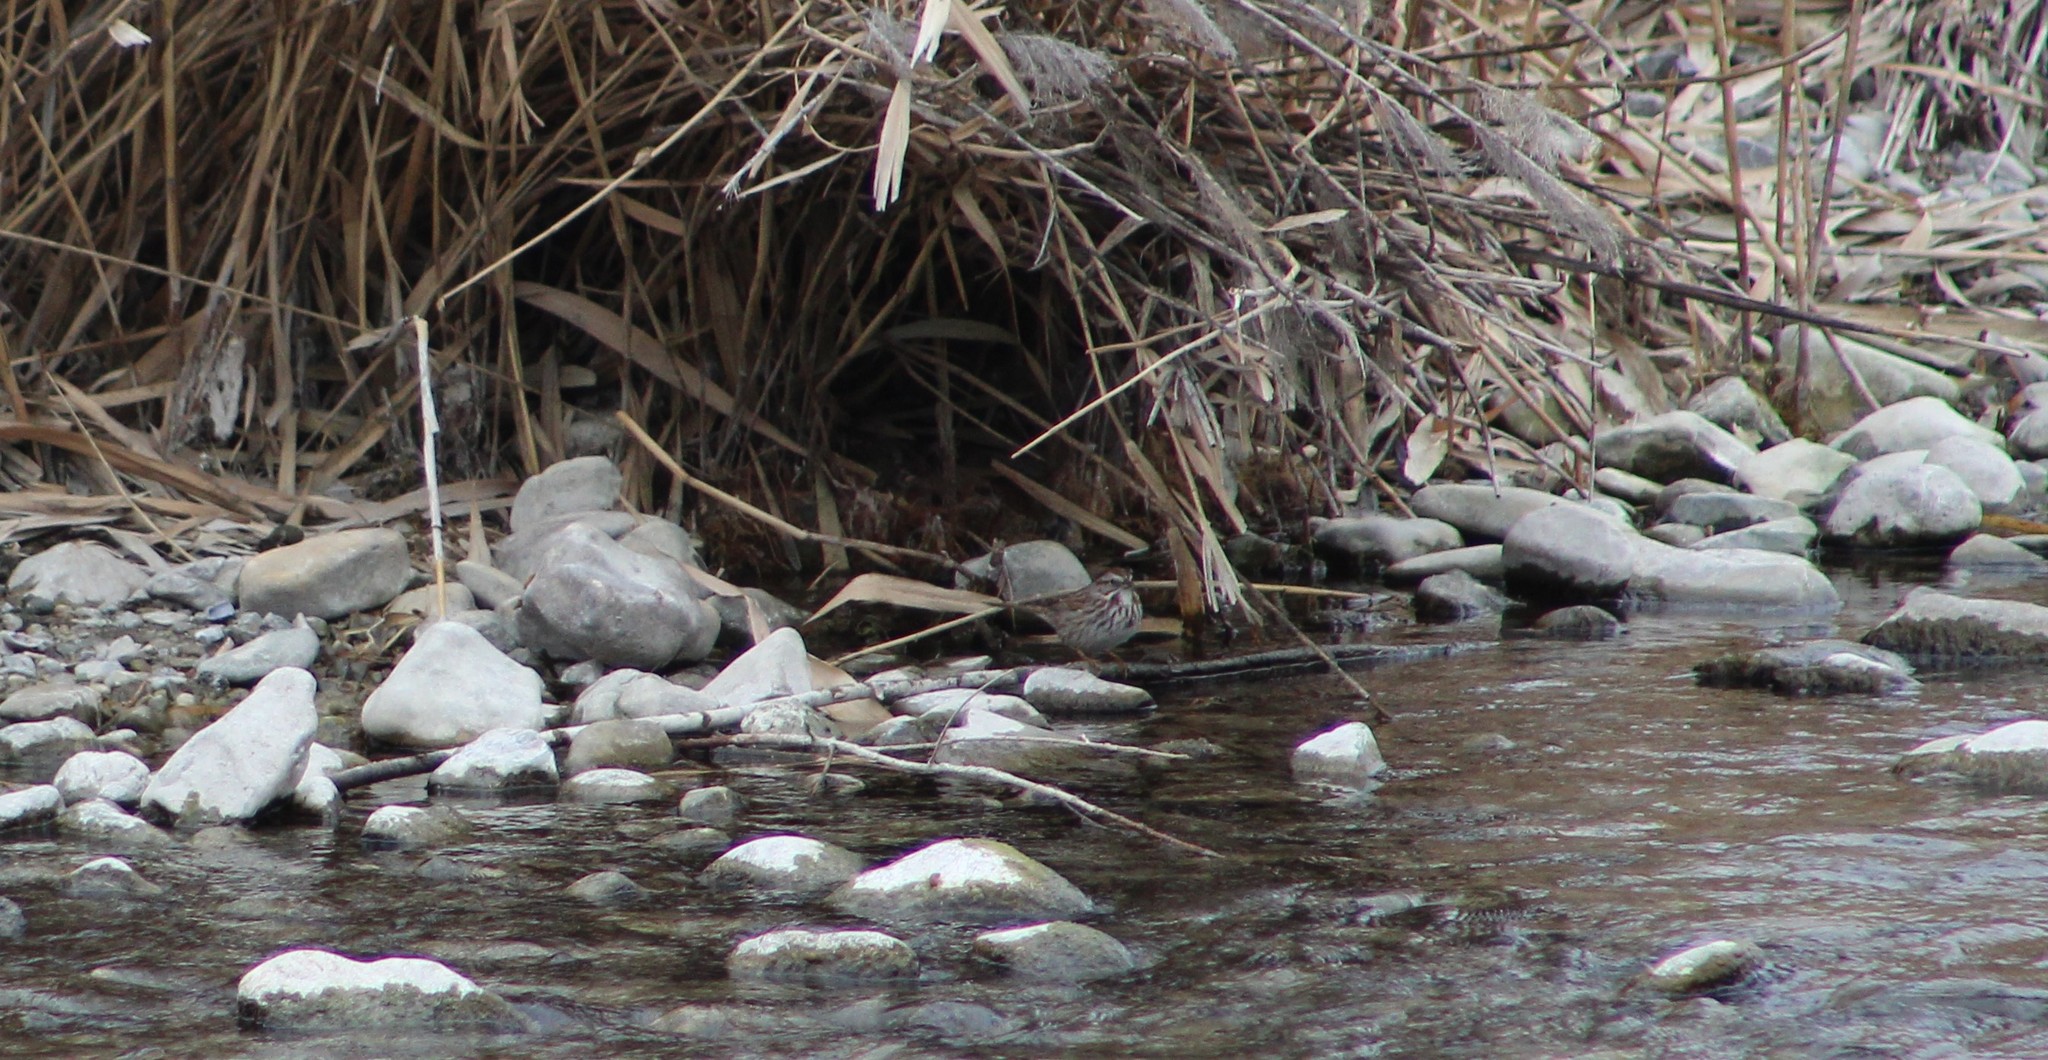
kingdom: Animalia
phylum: Chordata
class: Aves
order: Passeriformes
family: Passerellidae
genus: Melospiza
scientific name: Melospiza melodia
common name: Song sparrow
